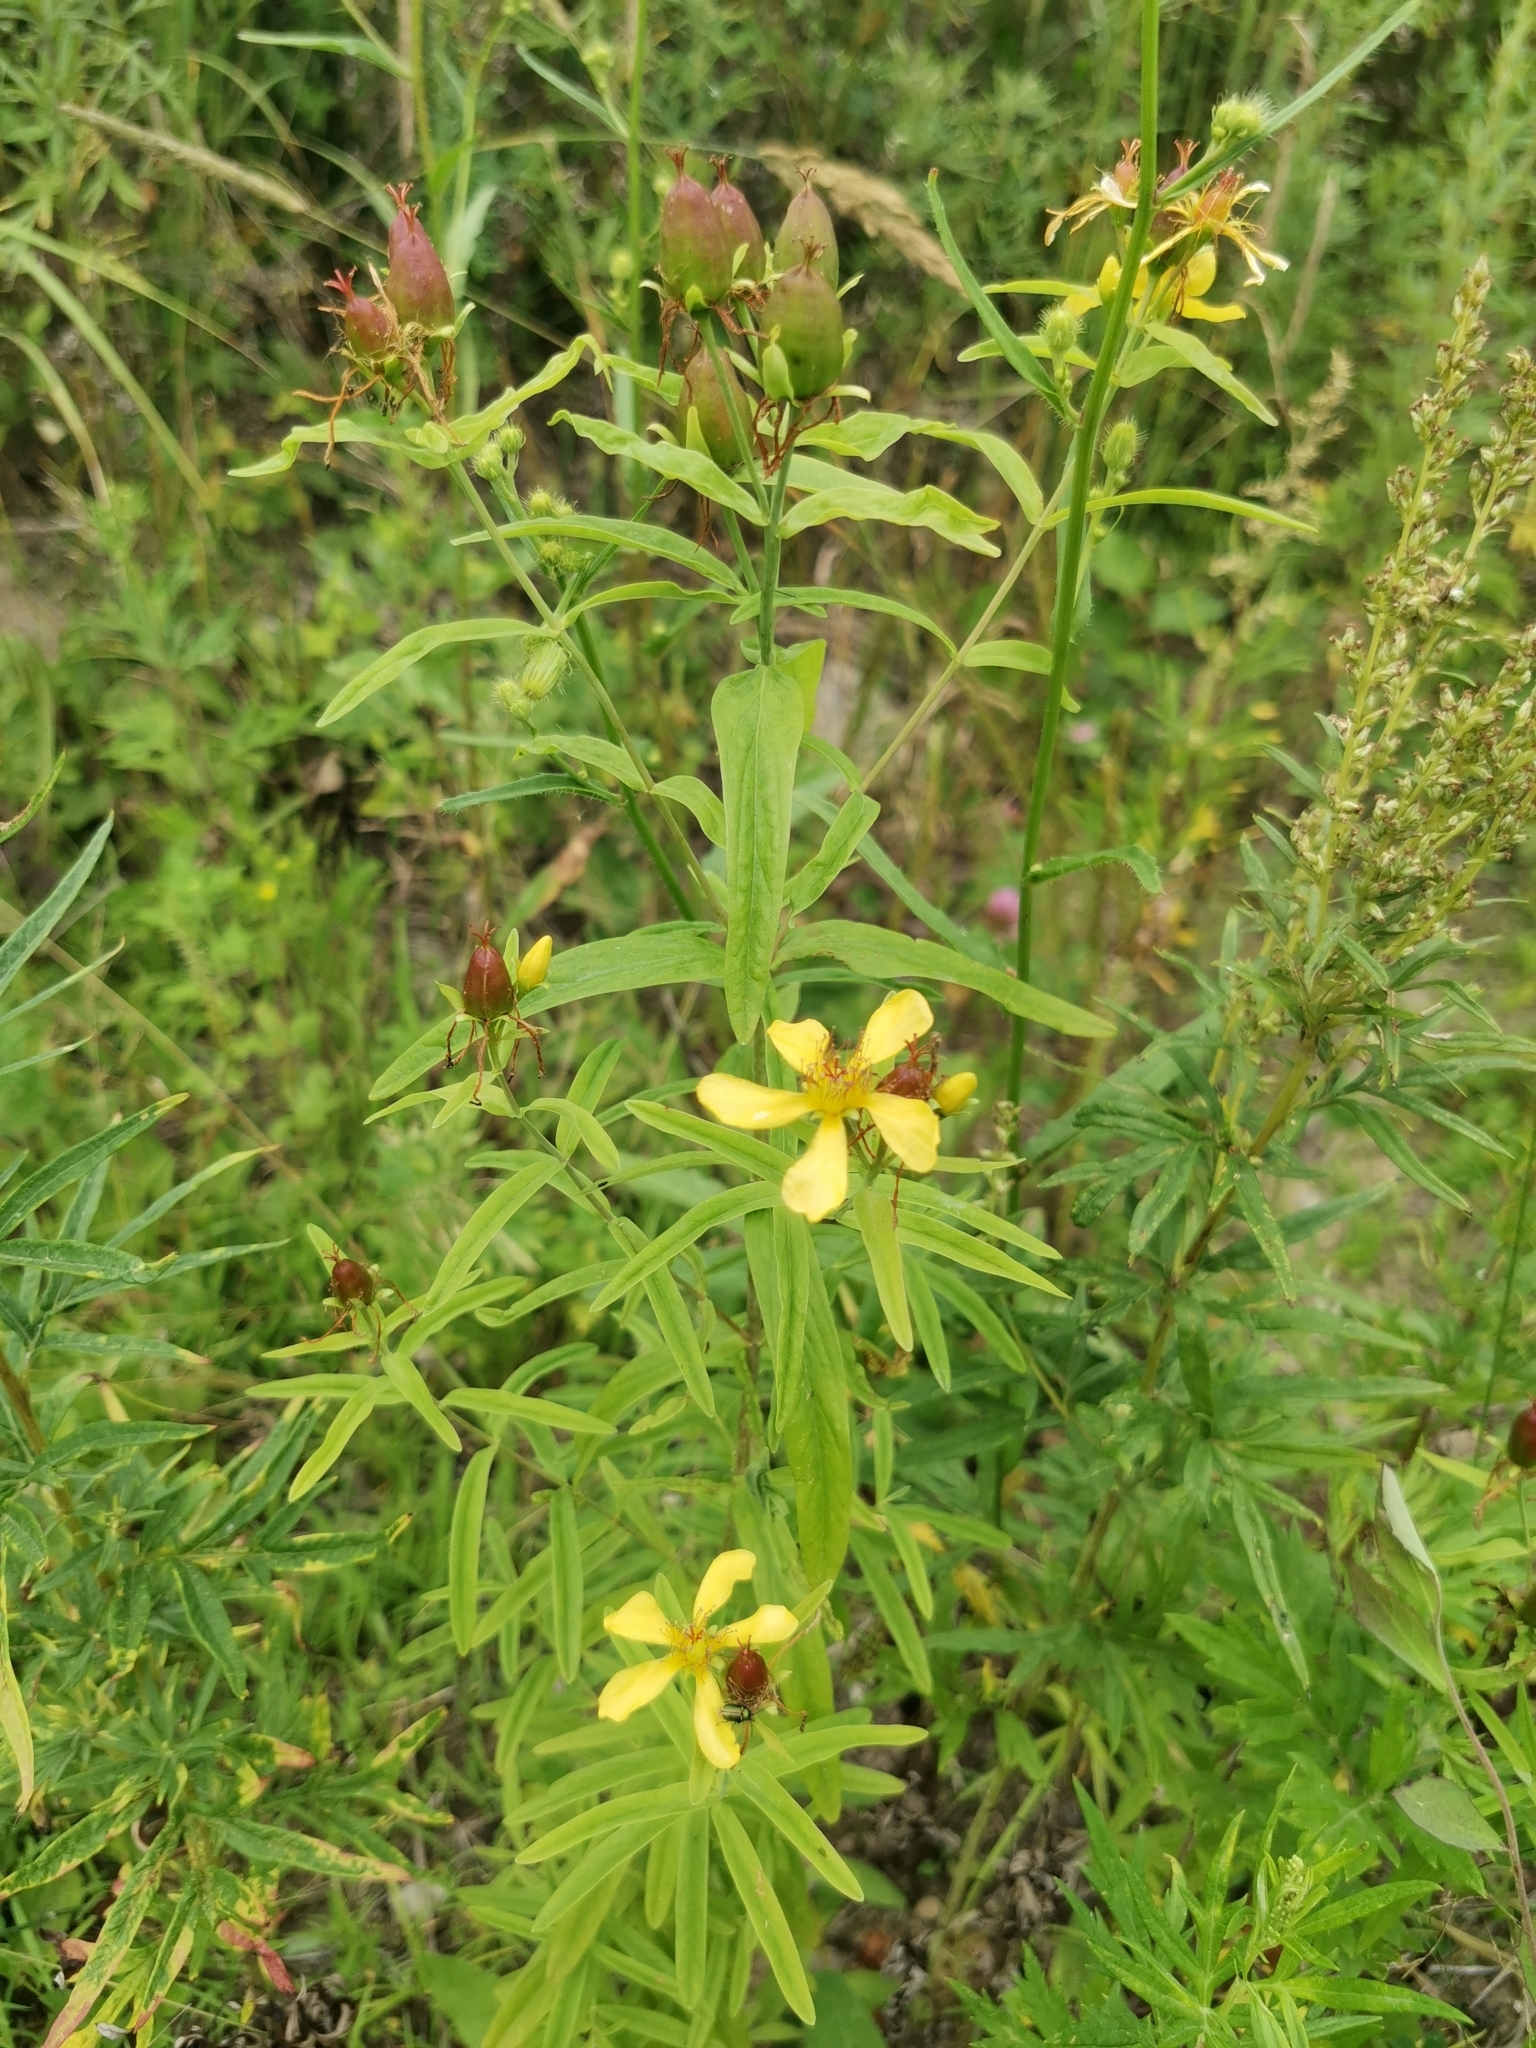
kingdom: Plantae
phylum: Tracheophyta
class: Magnoliopsida
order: Malpighiales
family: Hypericaceae
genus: Hypericum
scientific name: Hypericum ascyron
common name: Giant st. john's-wort
